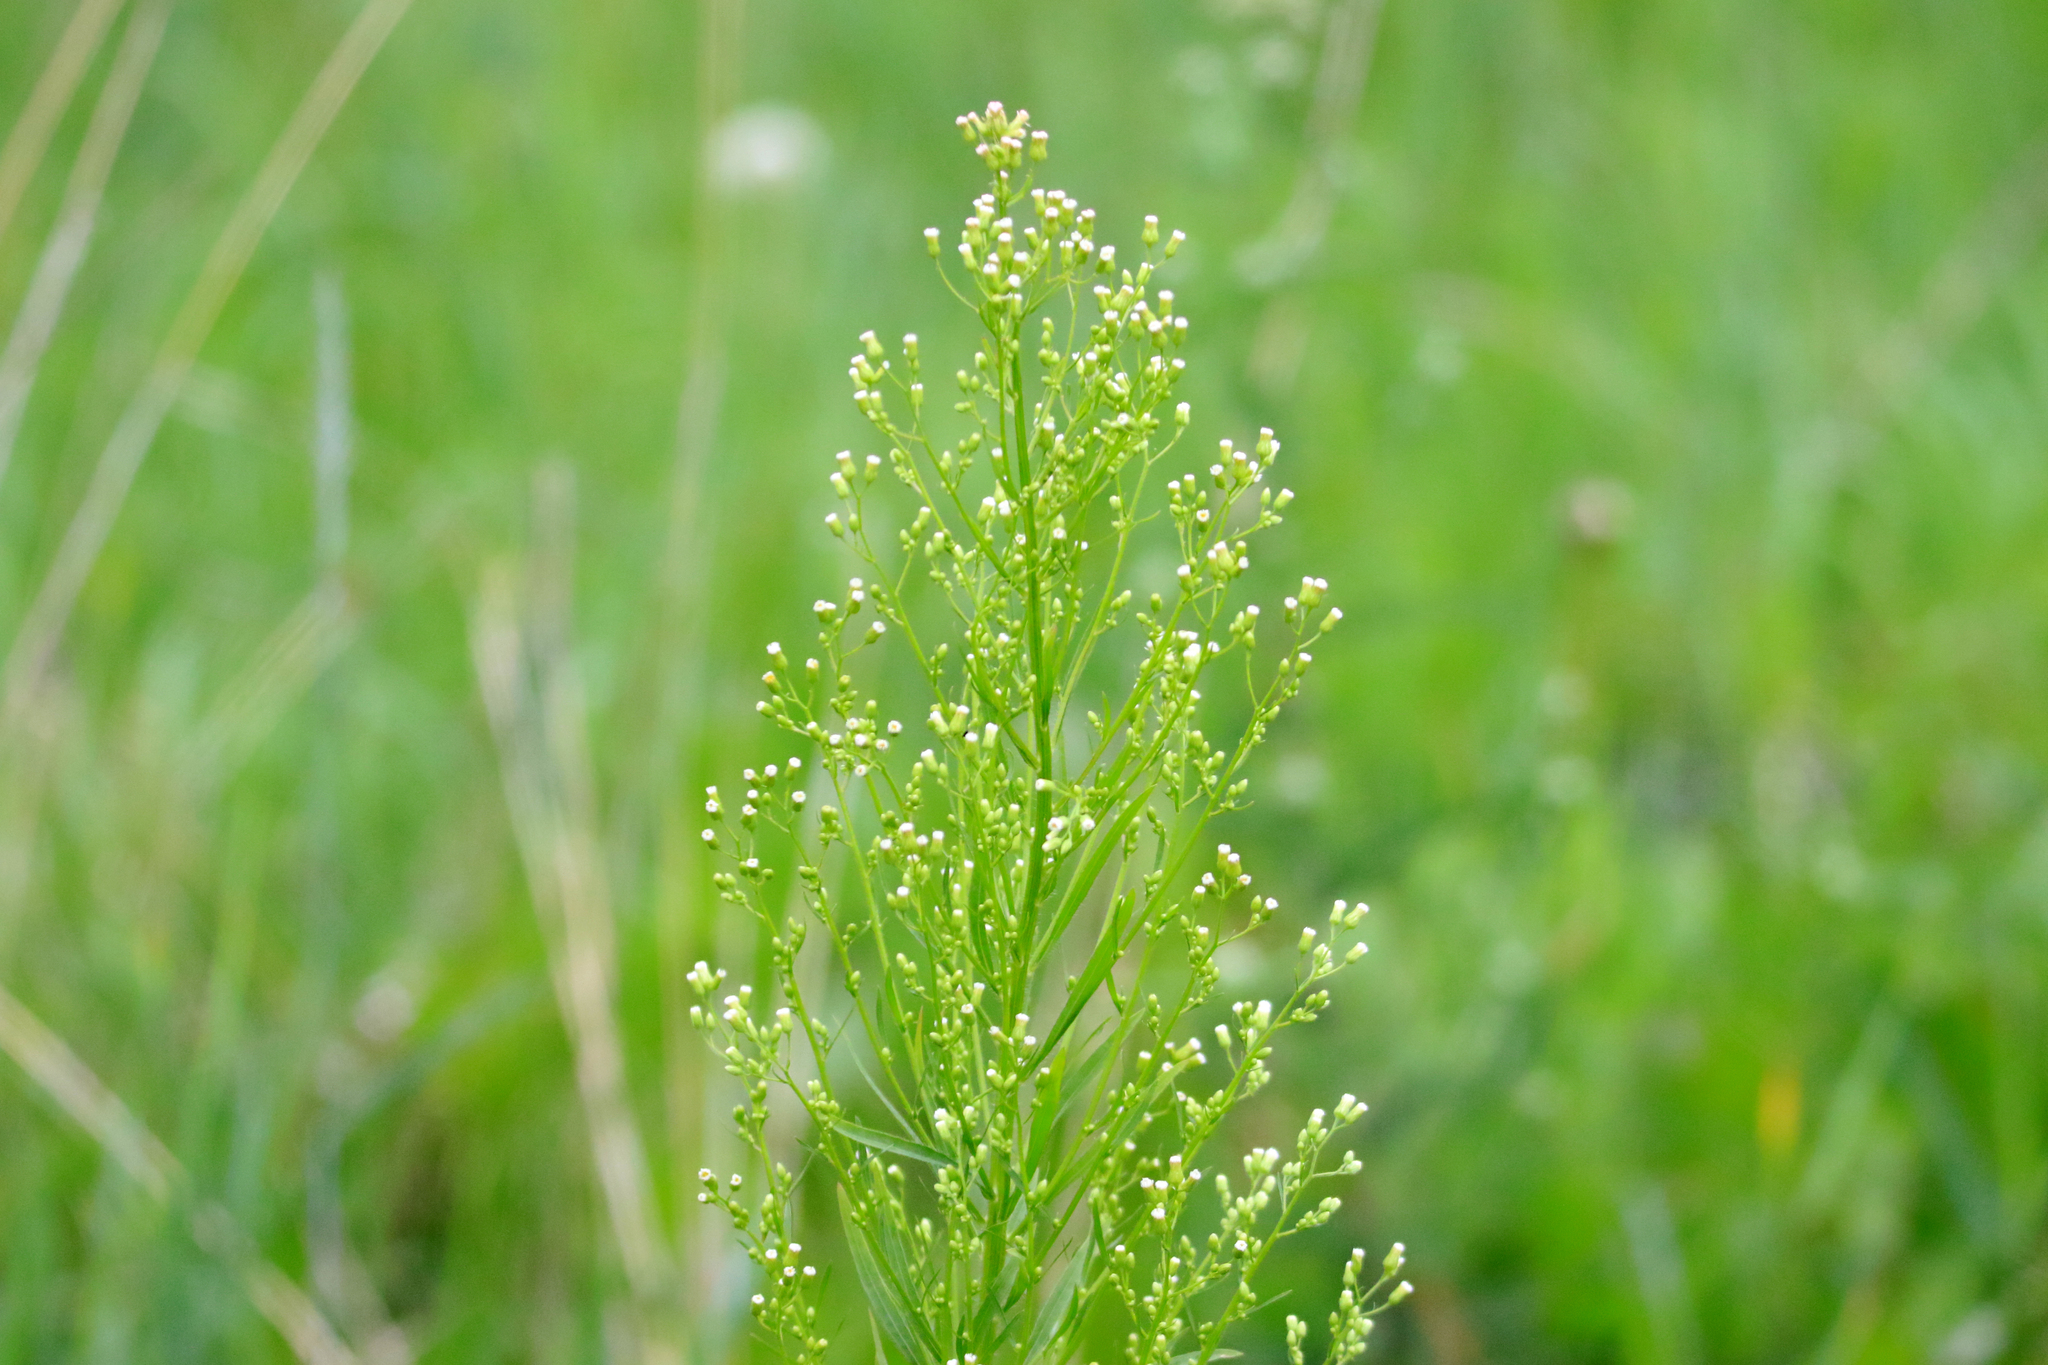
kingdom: Plantae
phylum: Tracheophyta
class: Magnoliopsida
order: Asterales
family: Asteraceae
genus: Erigeron
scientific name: Erigeron canadensis
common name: Canadian fleabane
